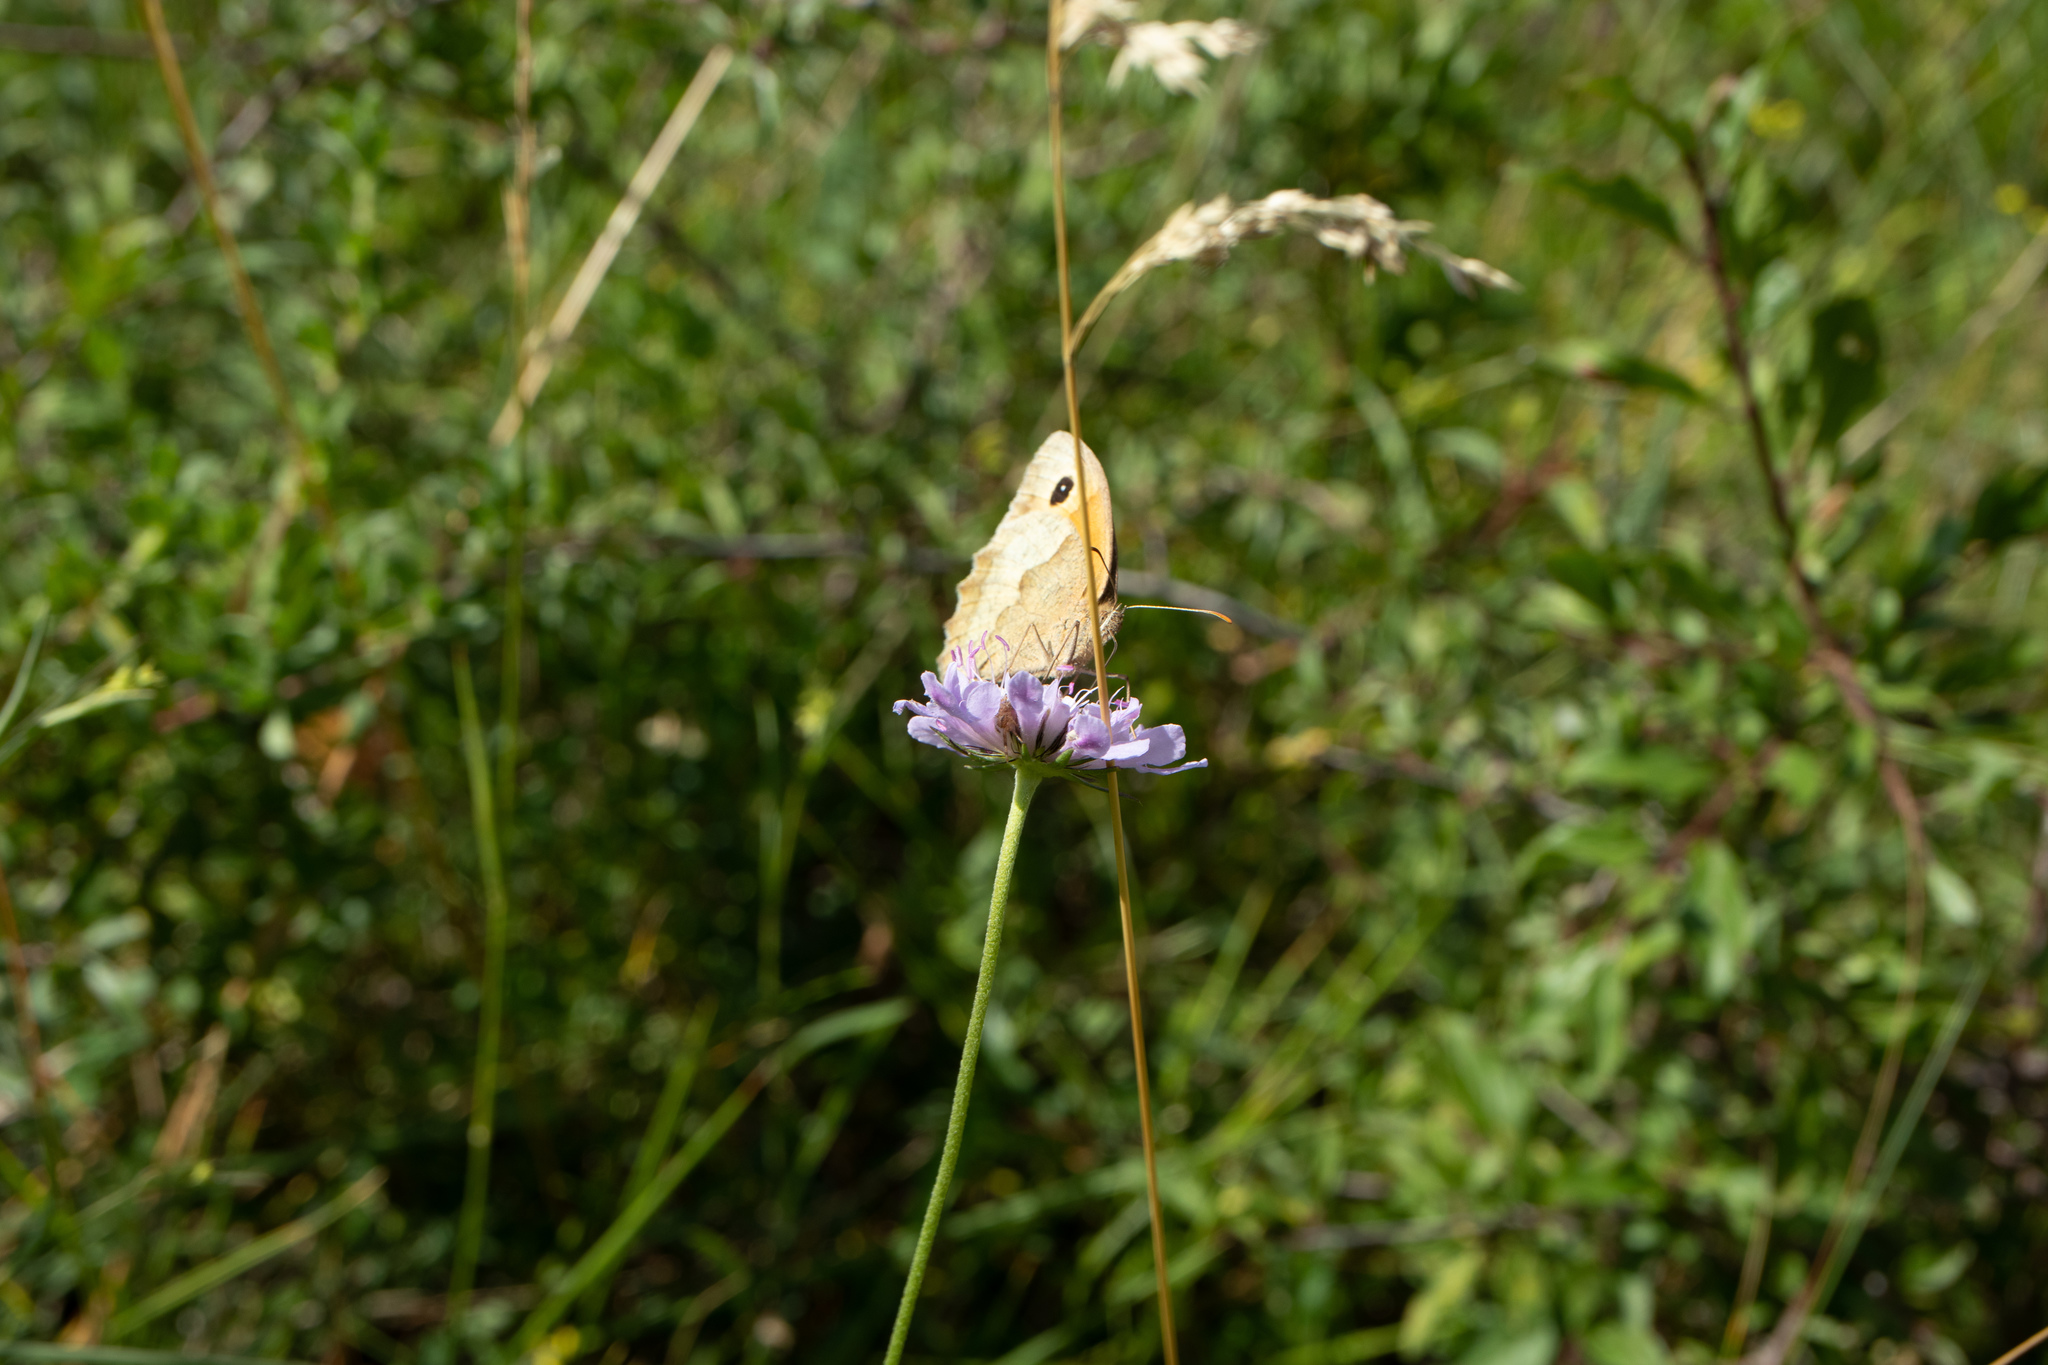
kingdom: Animalia
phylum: Arthropoda
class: Insecta
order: Lepidoptera
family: Nymphalidae
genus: Maniola
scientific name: Maniola jurtina
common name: Meadow brown
